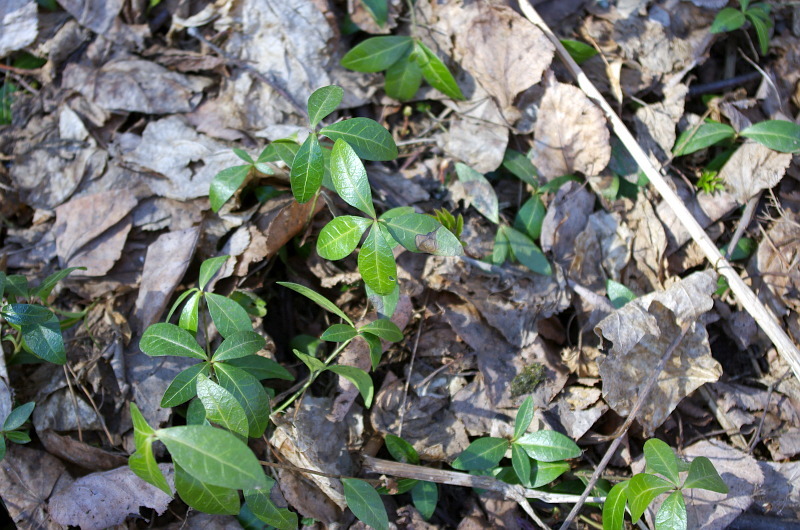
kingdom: Plantae
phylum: Tracheophyta
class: Magnoliopsida
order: Gentianales
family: Apocynaceae
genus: Vinca
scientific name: Vinca minor
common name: Lesser periwinkle
